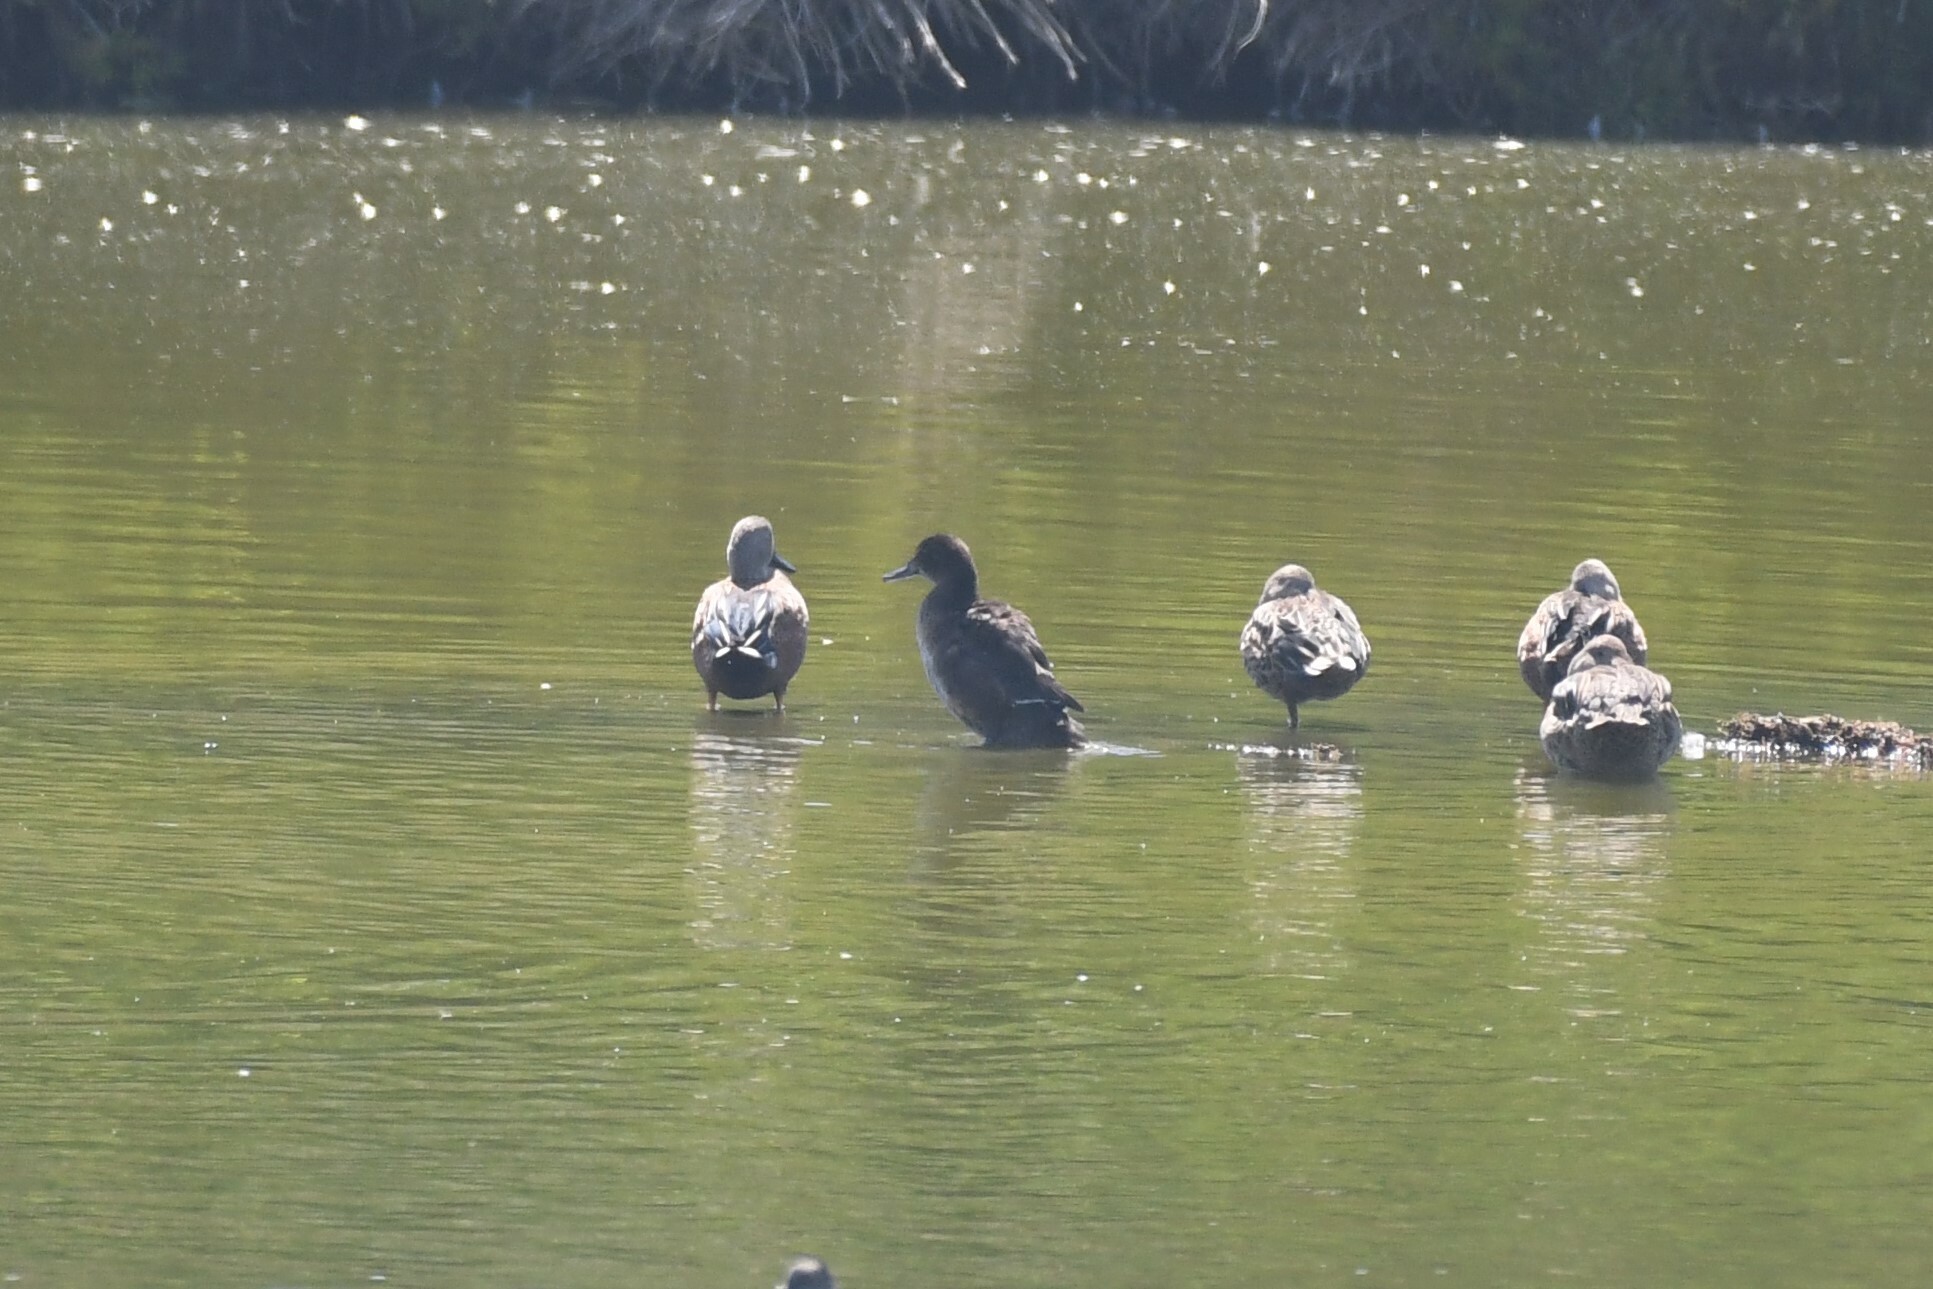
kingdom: Animalia
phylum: Chordata
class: Aves
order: Anseriformes
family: Anatidae
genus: Heteronetta
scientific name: Heteronetta atricapilla
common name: Black-headed duck
